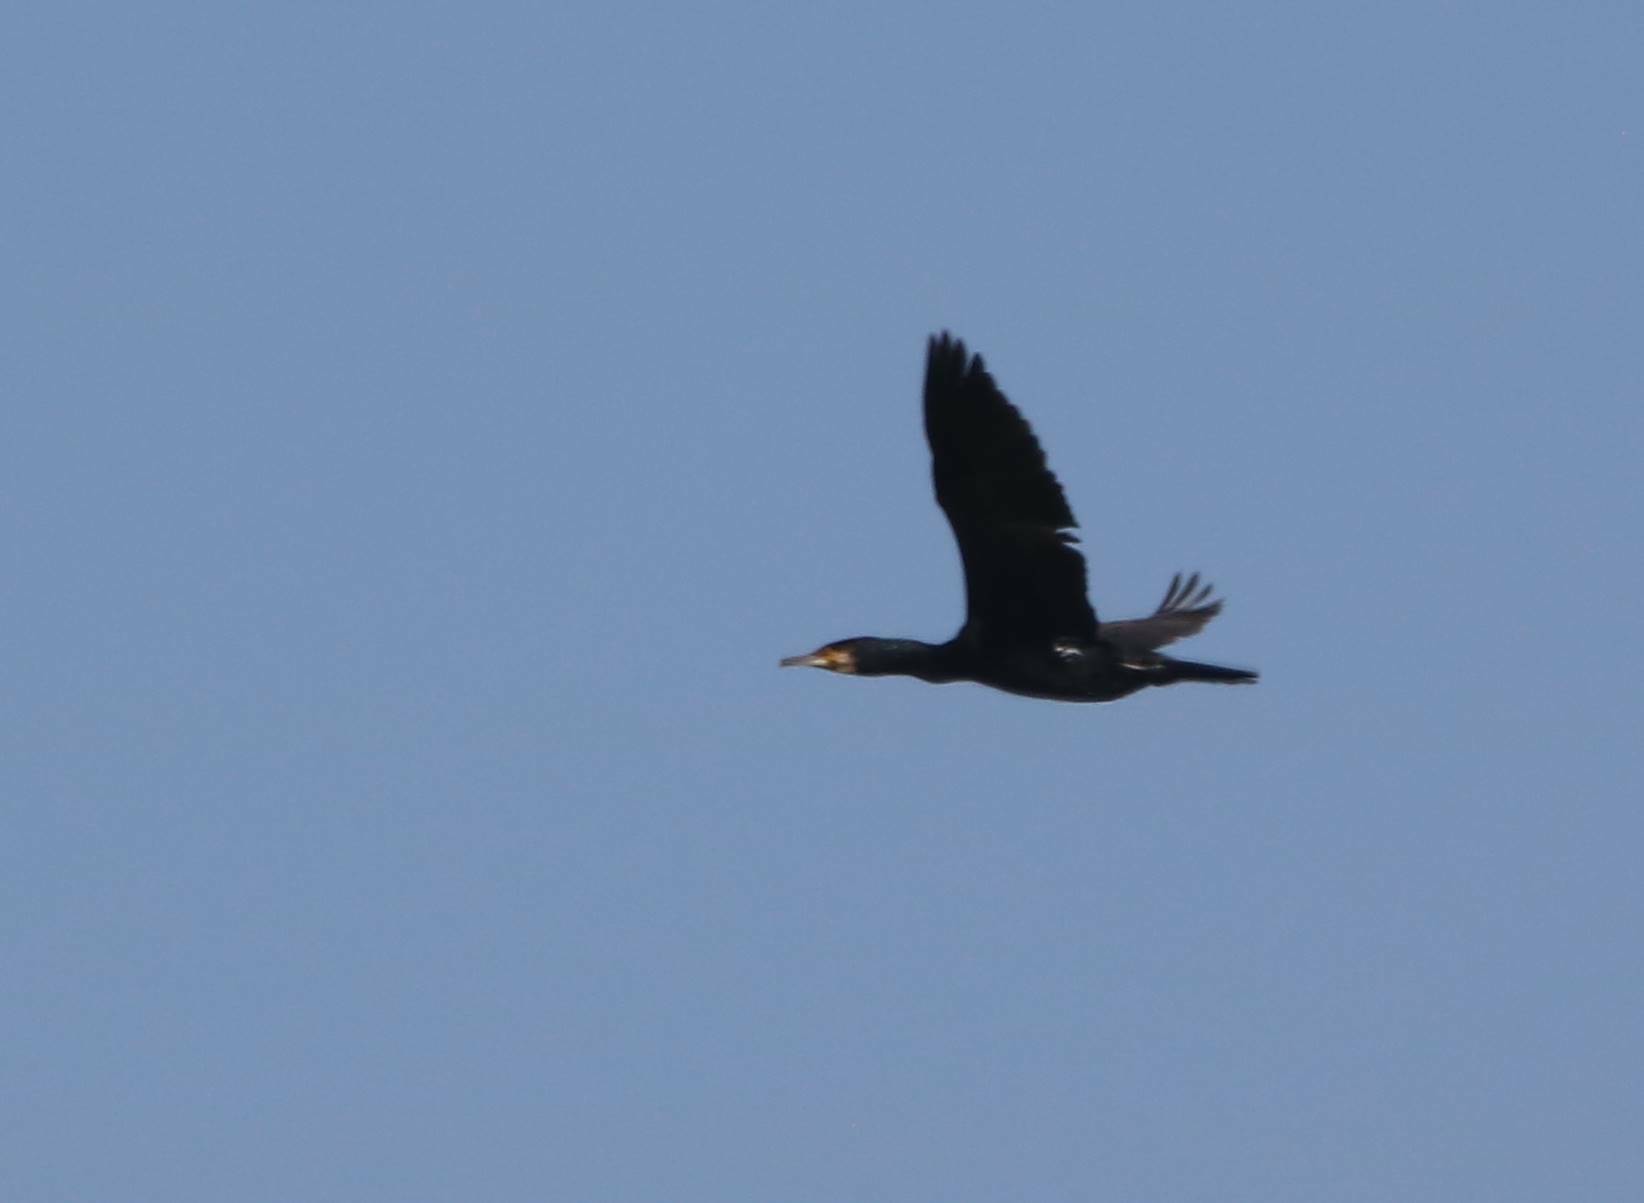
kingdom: Animalia
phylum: Chordata
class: Aves
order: Suliformes
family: Phalacrocoracidae
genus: Phalacrocorax
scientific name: Phalacrocorax carbo
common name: Great cormorant
